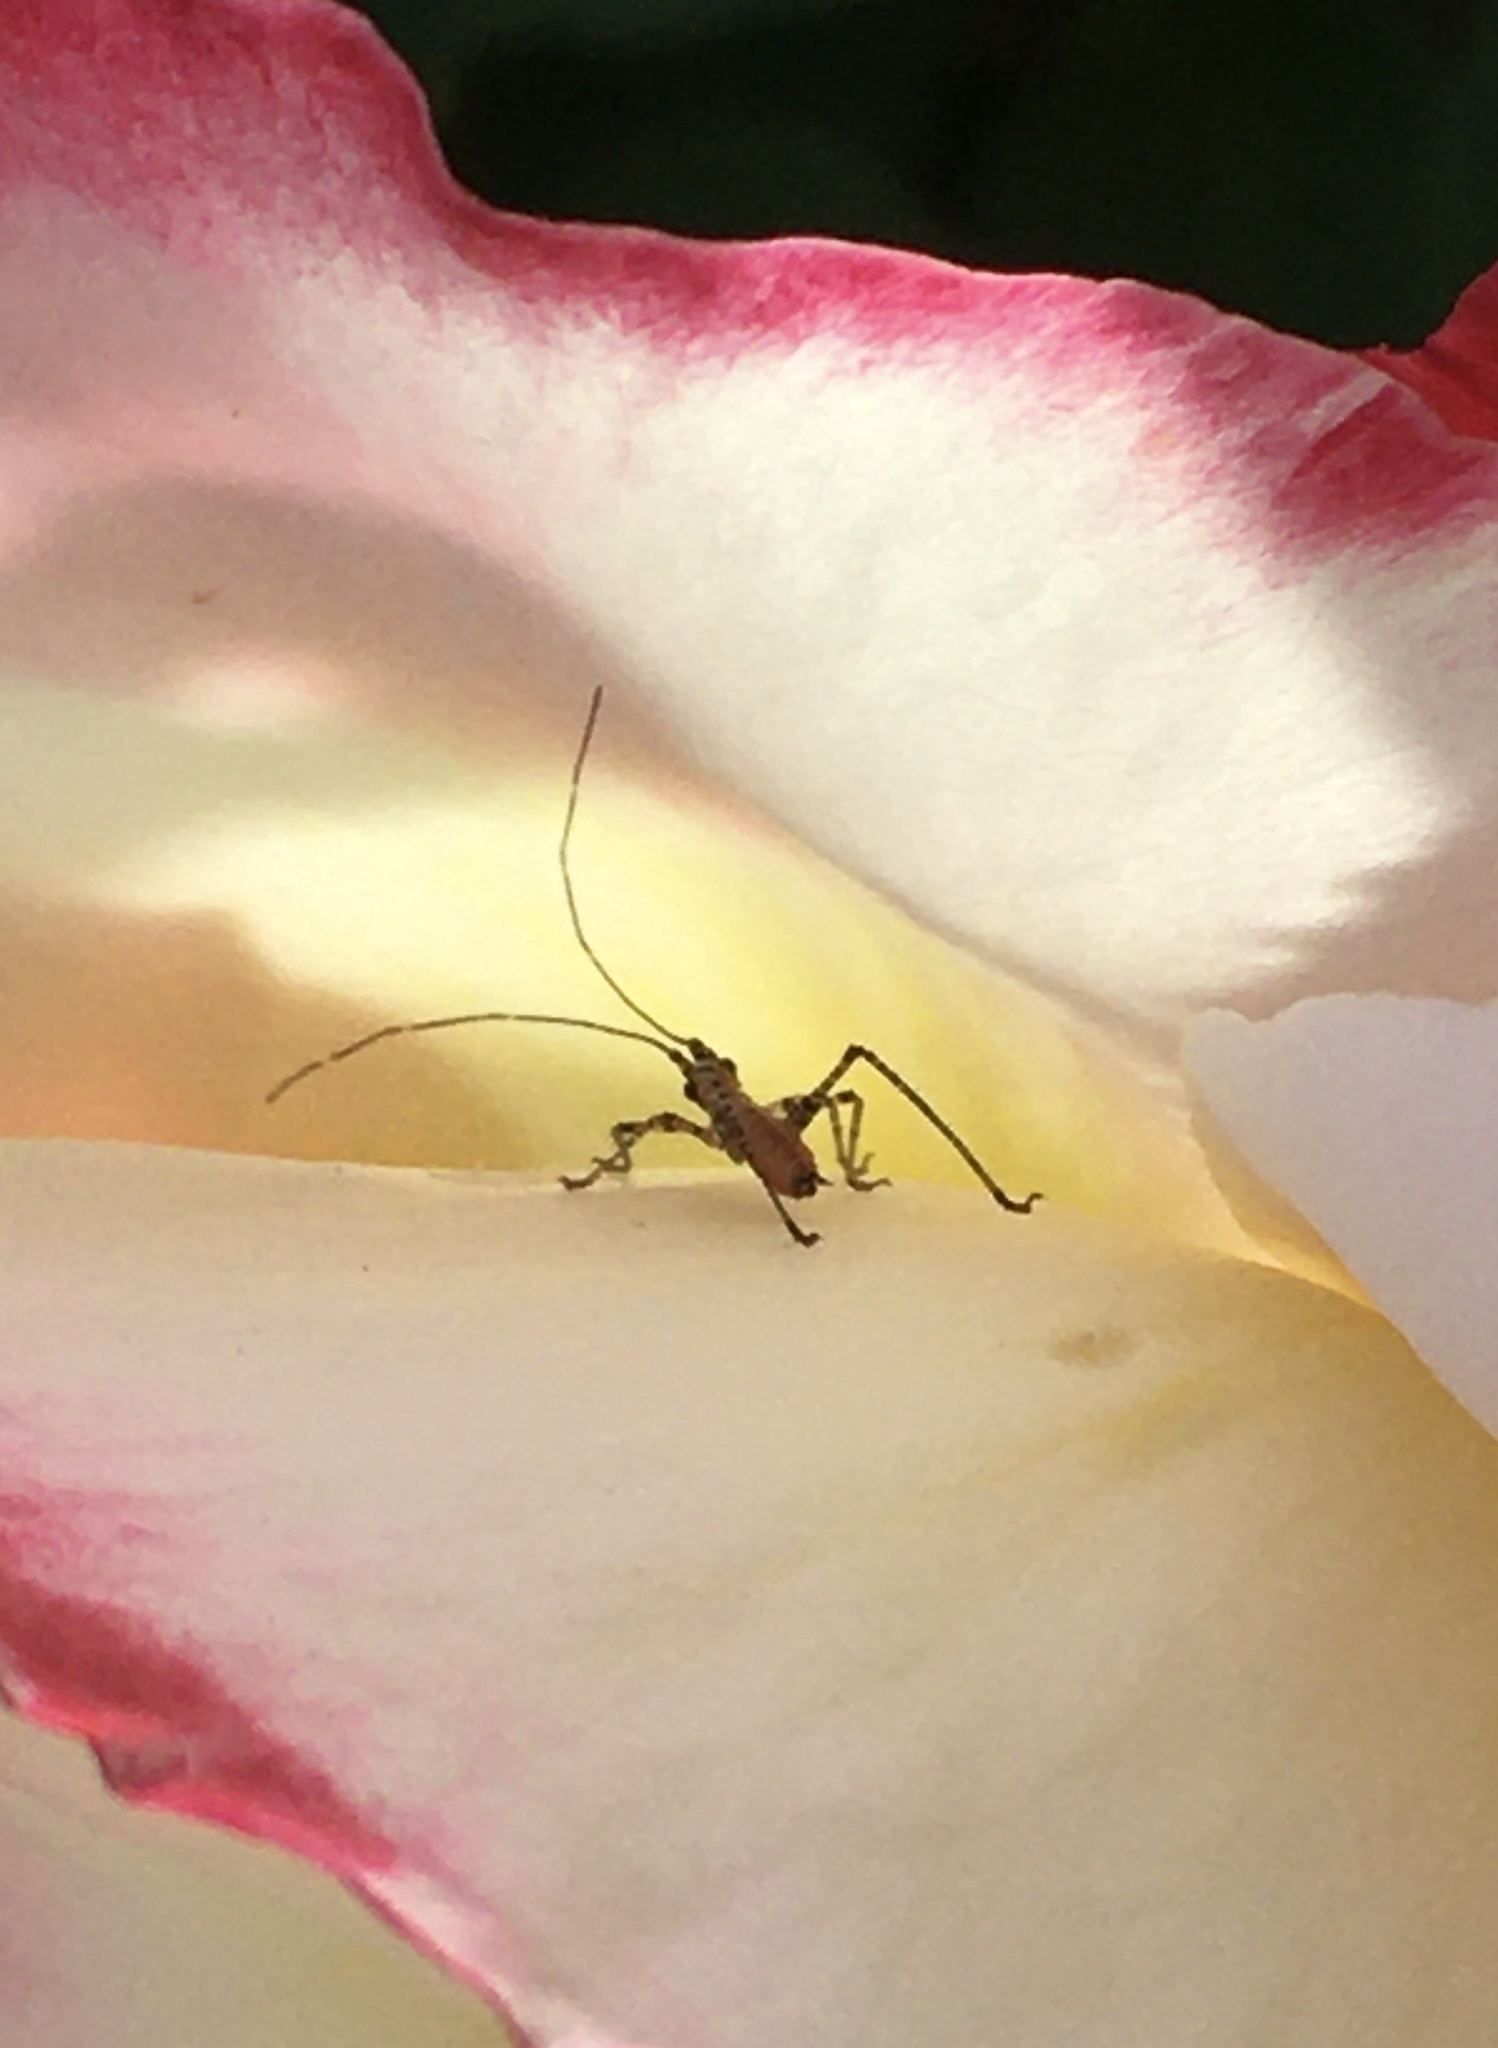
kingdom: Animalia
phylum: Arthropoda
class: Insecta
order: Orthoptera
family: Tettigoniidae
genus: Scudderia
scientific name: Scudderia
